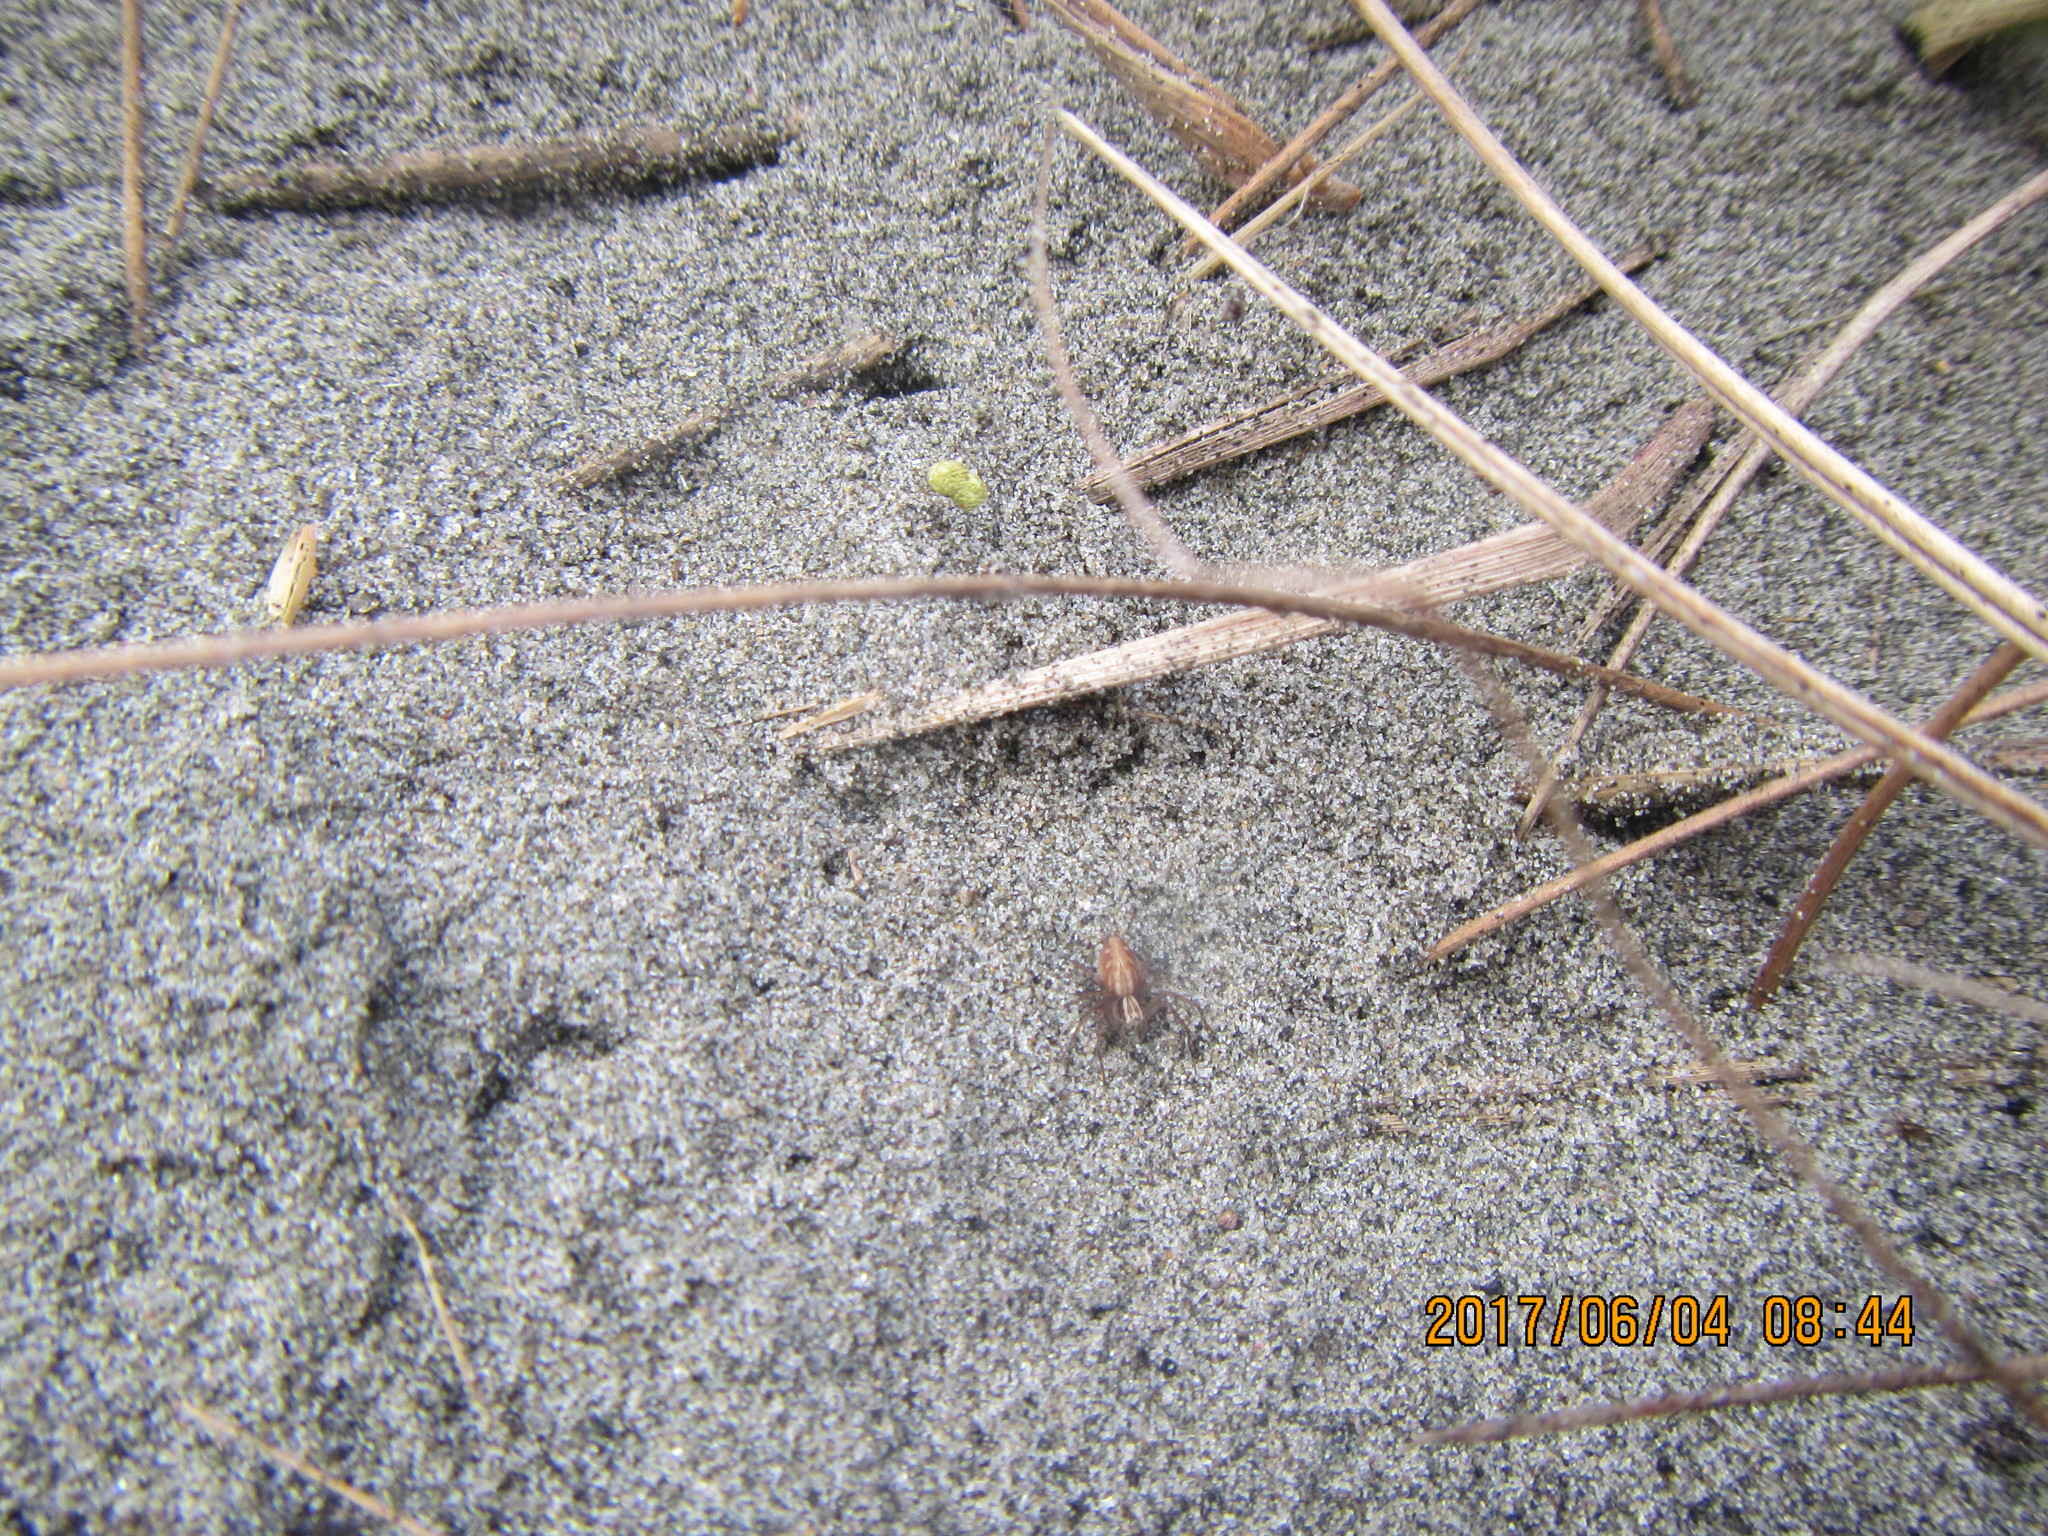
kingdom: Animalia
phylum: Arthropoda
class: Arachnida
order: Araneae
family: Oxyopidae
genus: Oxyopes
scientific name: Oxyopes gracilipes
